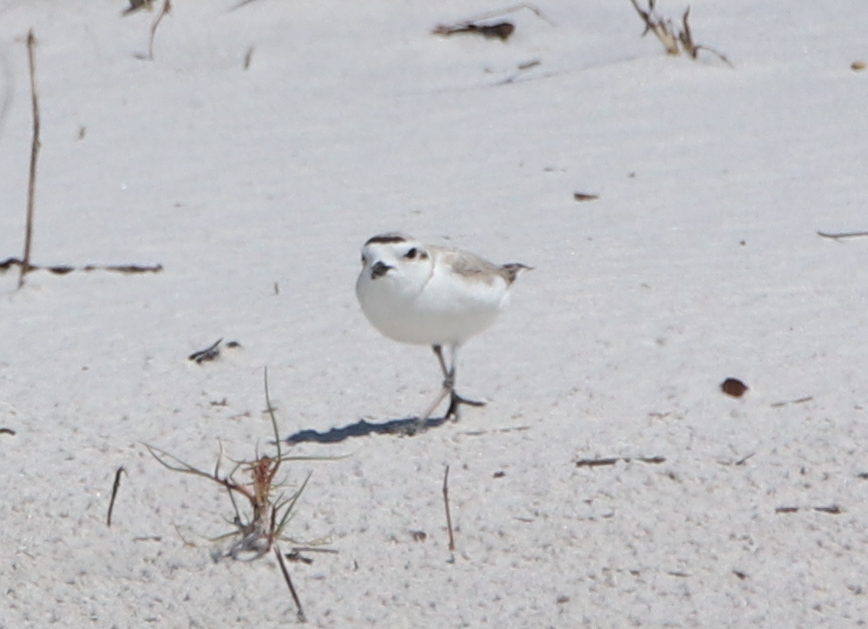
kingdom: Animalia
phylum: Chordata
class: Aves
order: Charadriiformes
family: Charadriidae
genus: Anarhynchus
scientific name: Anarhynchus
